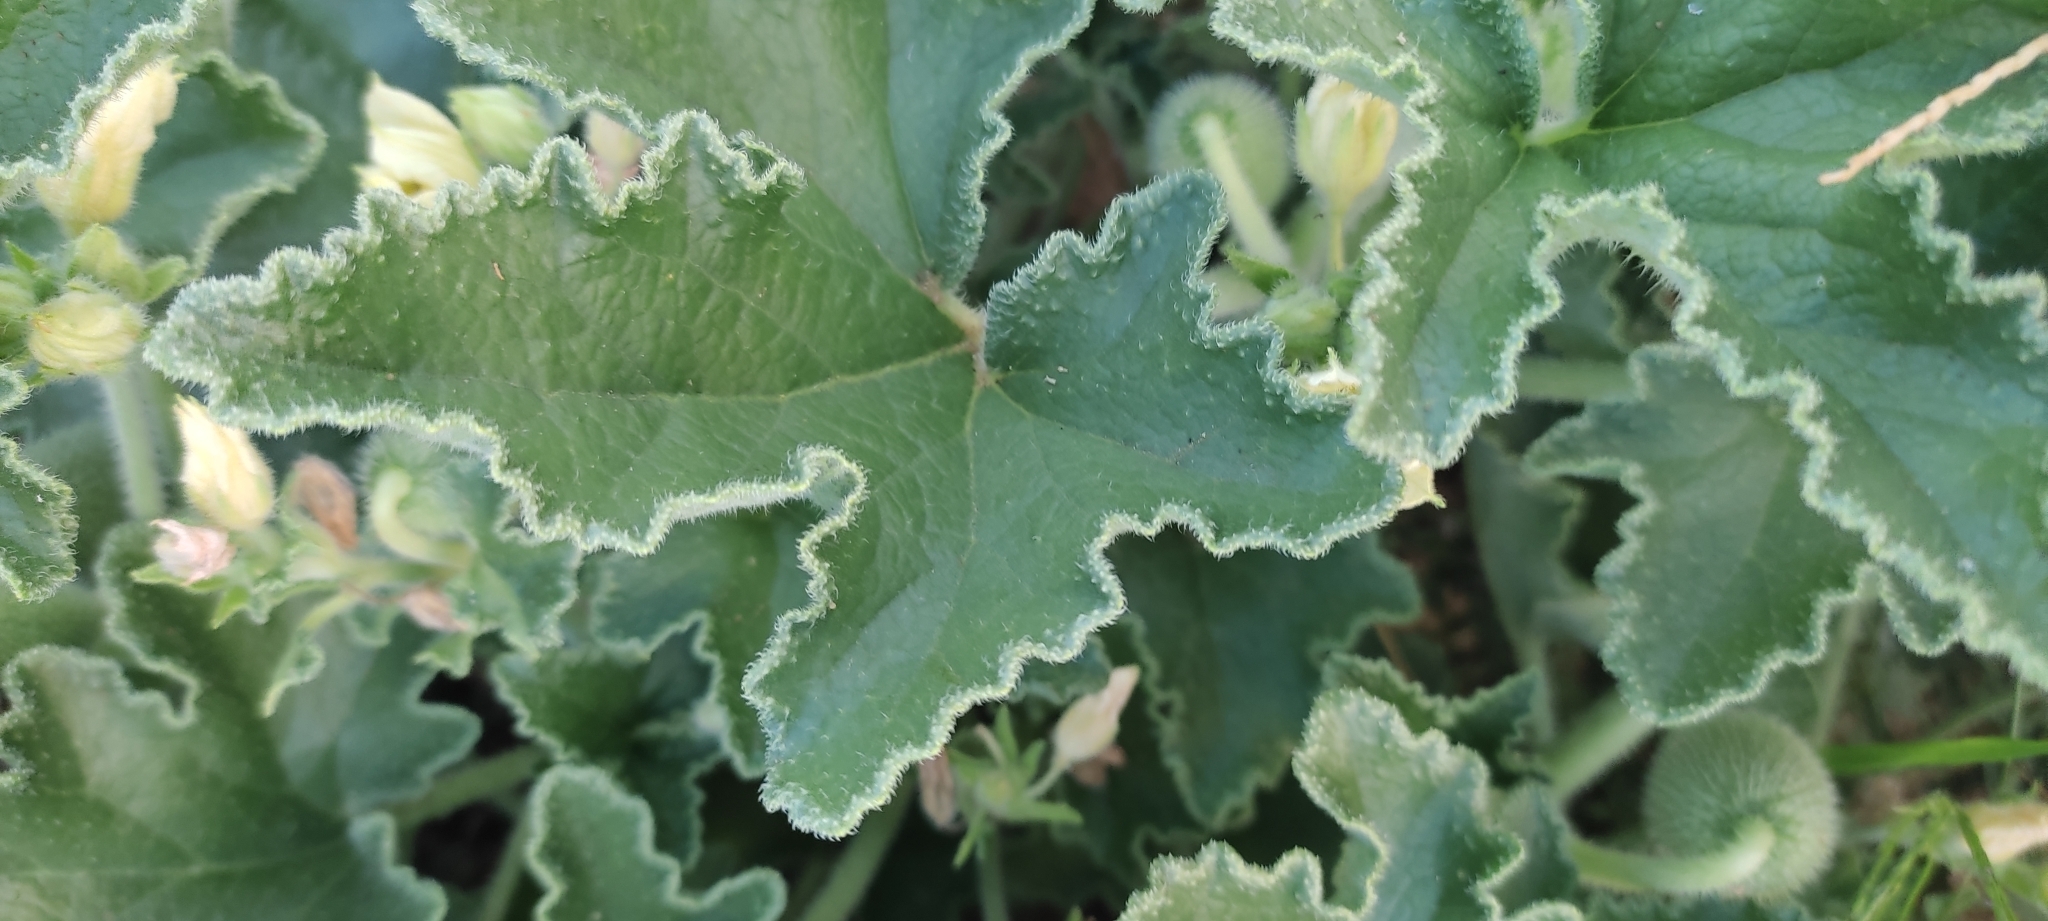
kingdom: Plantae
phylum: Tracheophyta
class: Magnoliopsida
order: Cucurbitales
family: Cucurbitaceae
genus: Ecballium
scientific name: Ecballium elaterium
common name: Squirting cucumber
